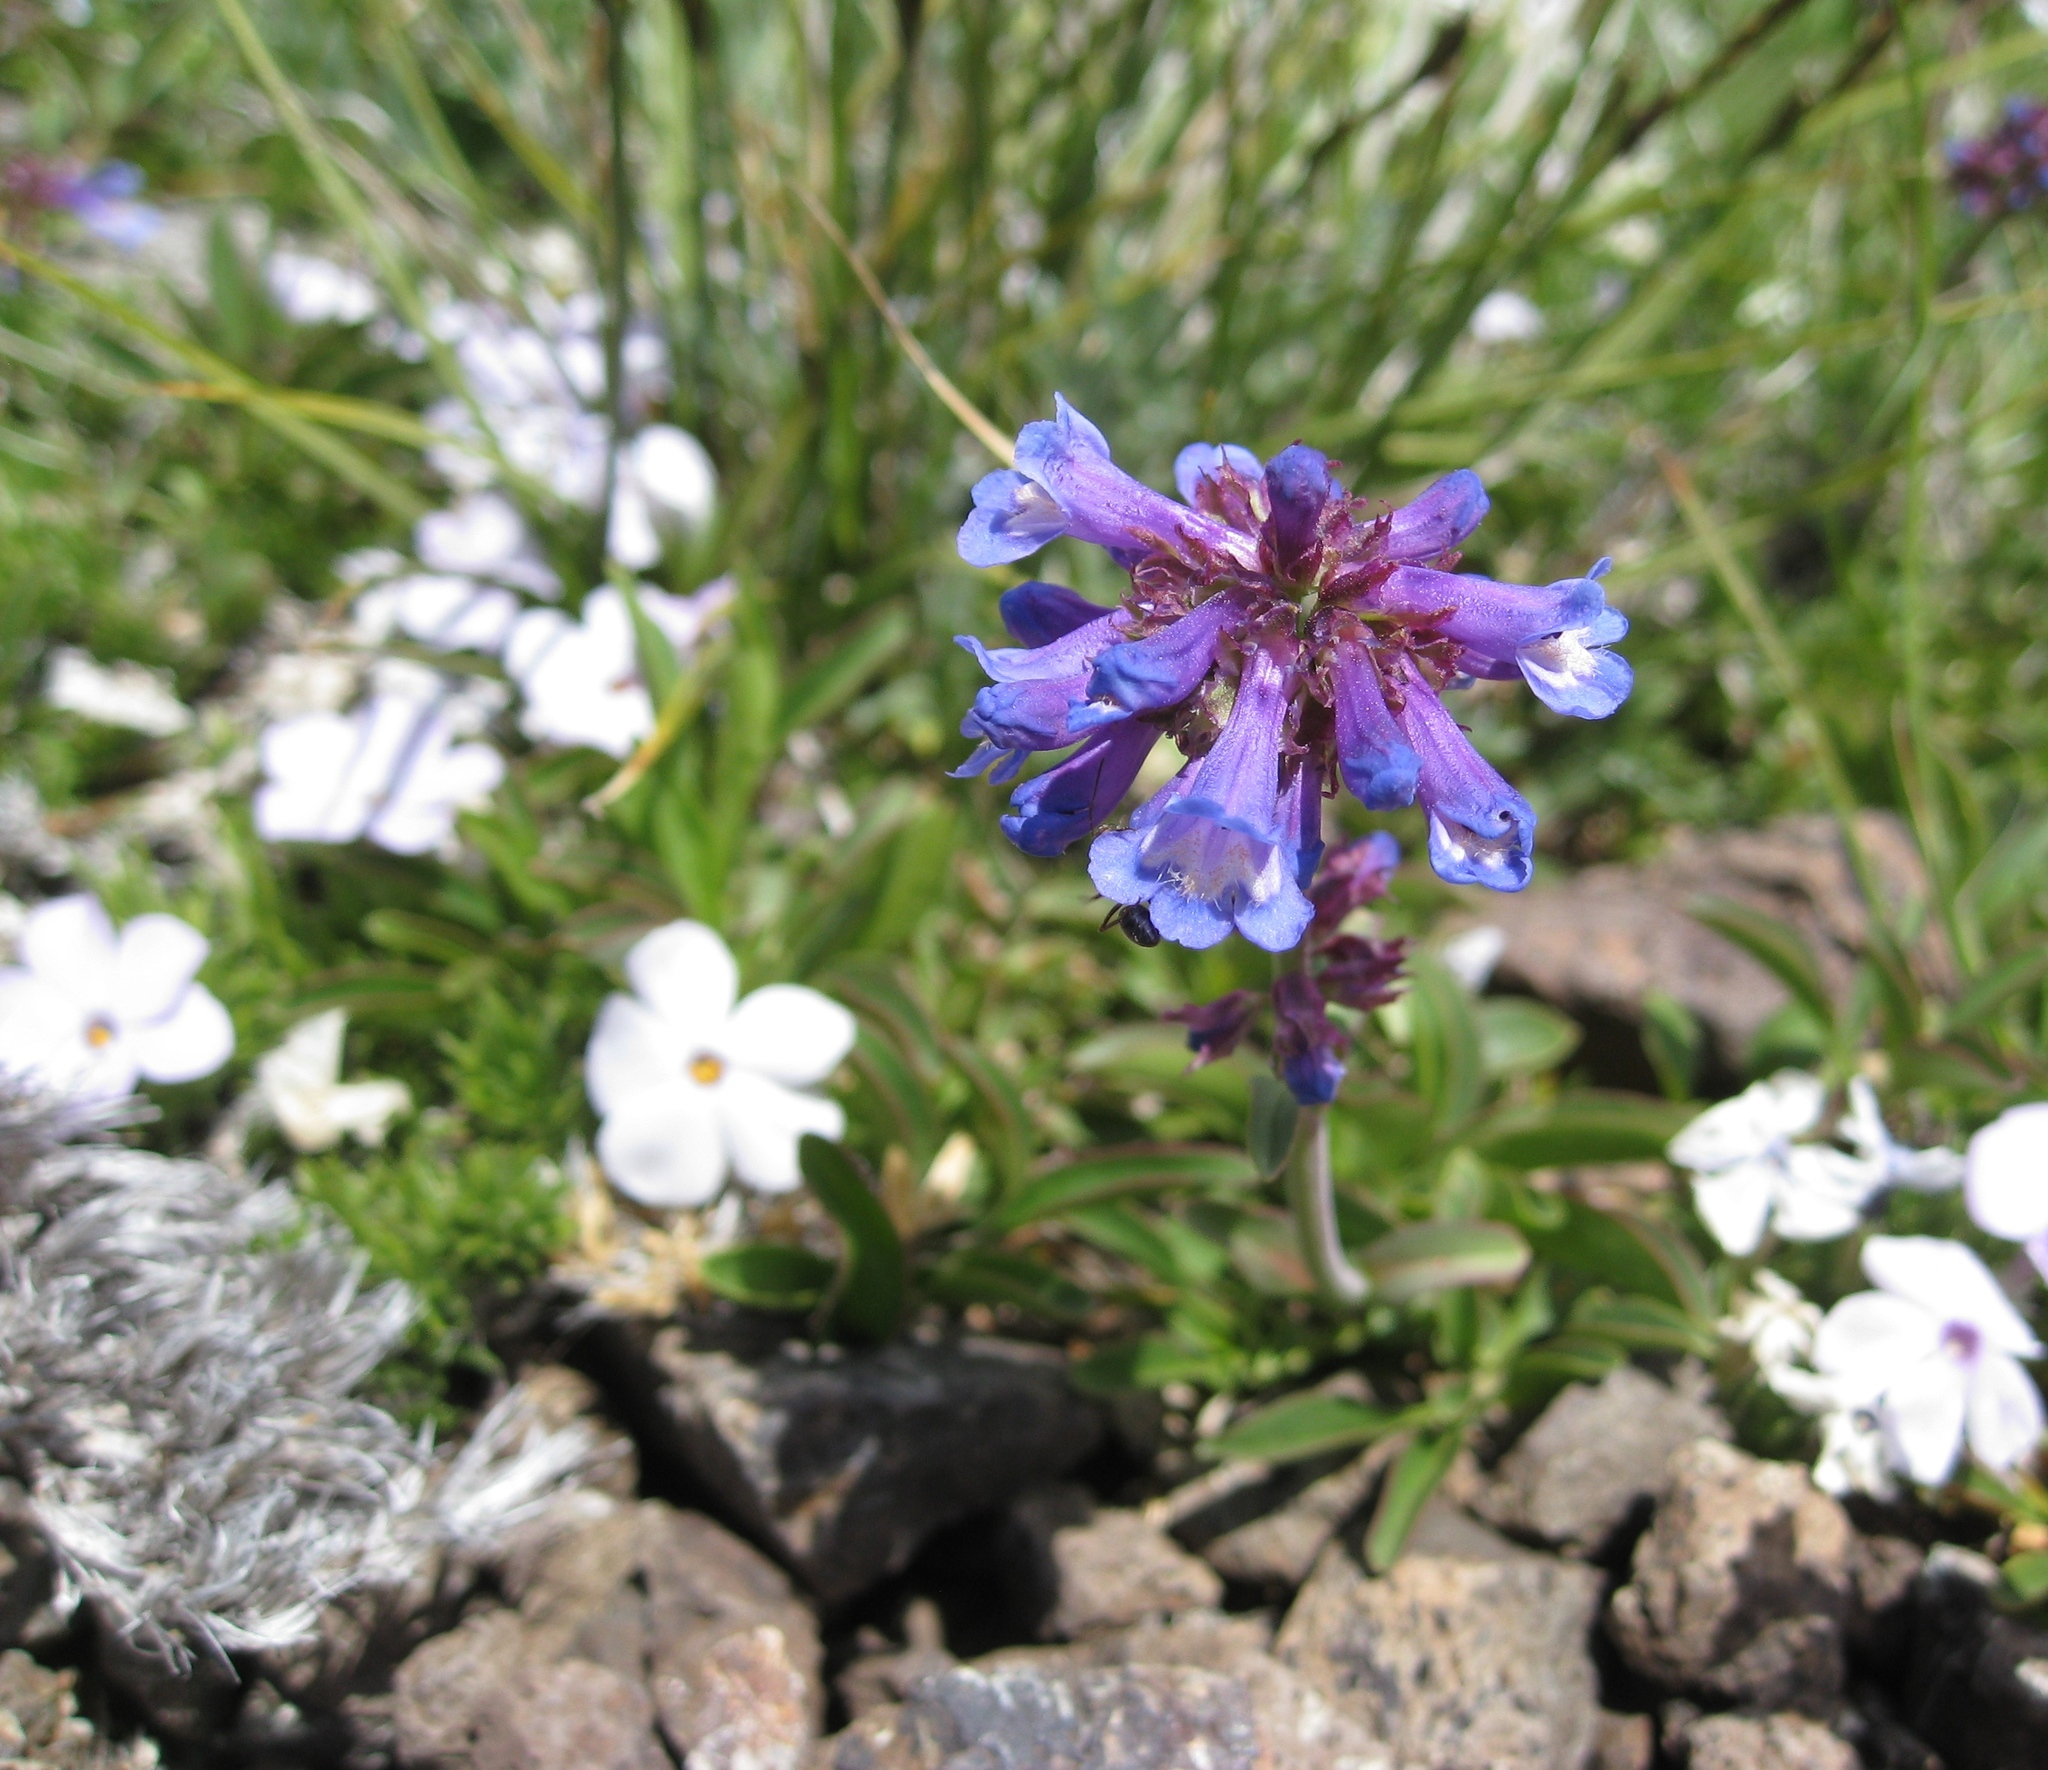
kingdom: Plantae
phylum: Tracheophyta
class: Magnoliopsida
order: Lamiales
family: Plantaginaceae
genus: Penstemon
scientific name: Penstemon procerus
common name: Small-flower penstemon
